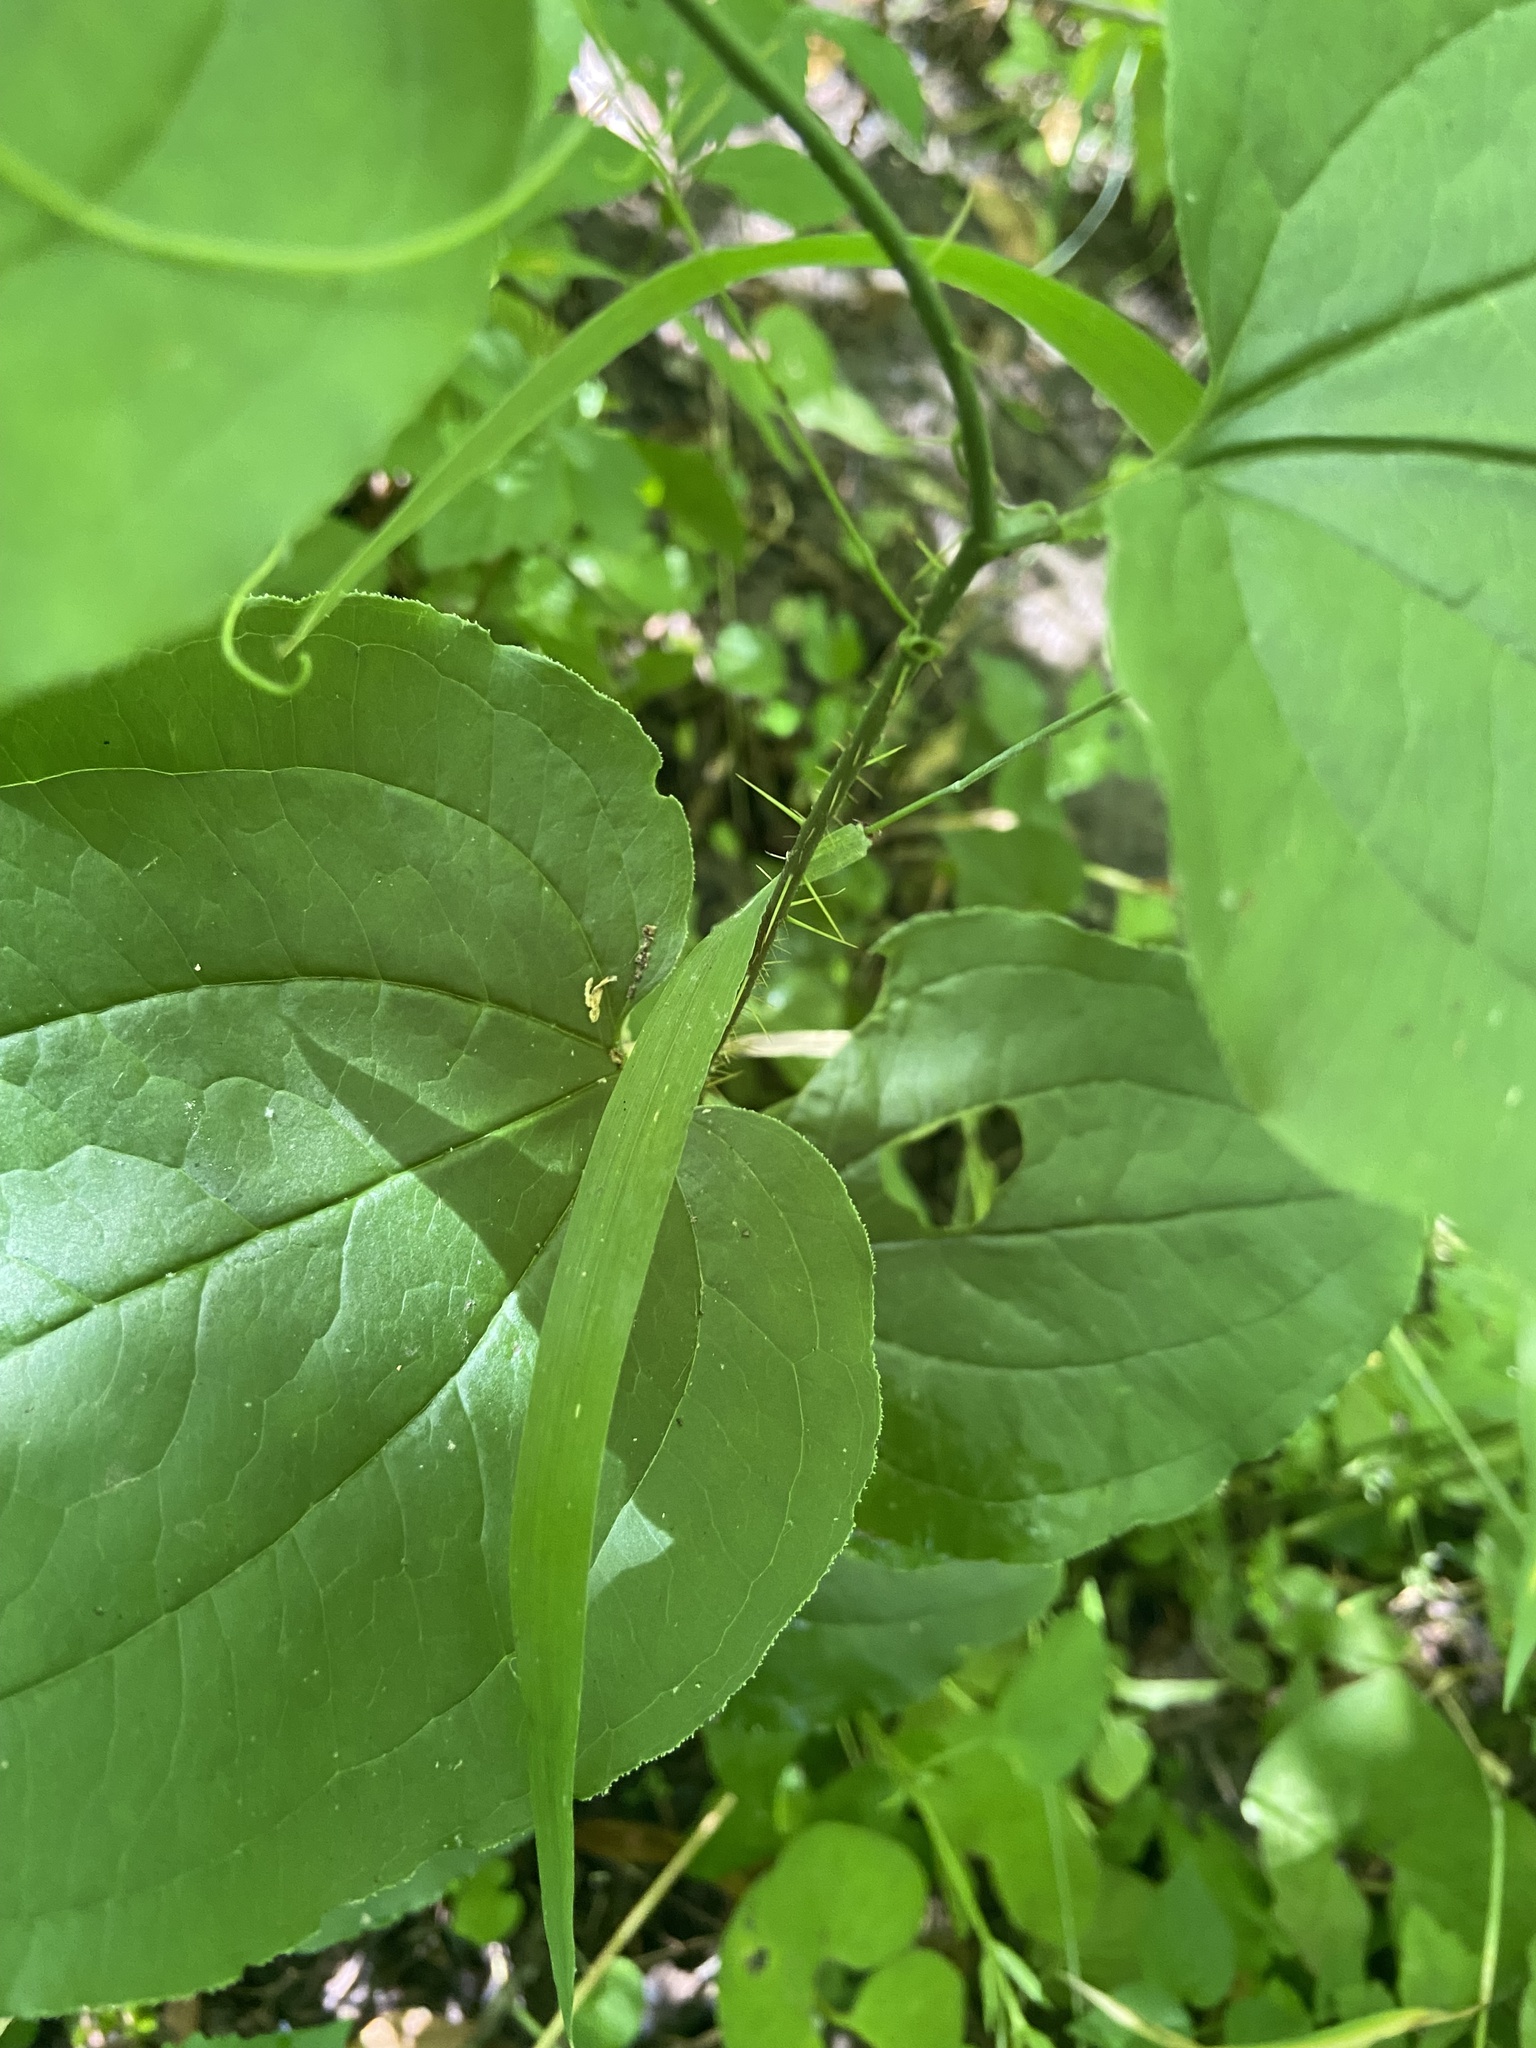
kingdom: Plantae
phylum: Tracheophyta
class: Liliopsida
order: Liliales
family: Smilacaceae
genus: Smilax
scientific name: Smilax tamnoides
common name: Hellfetter
